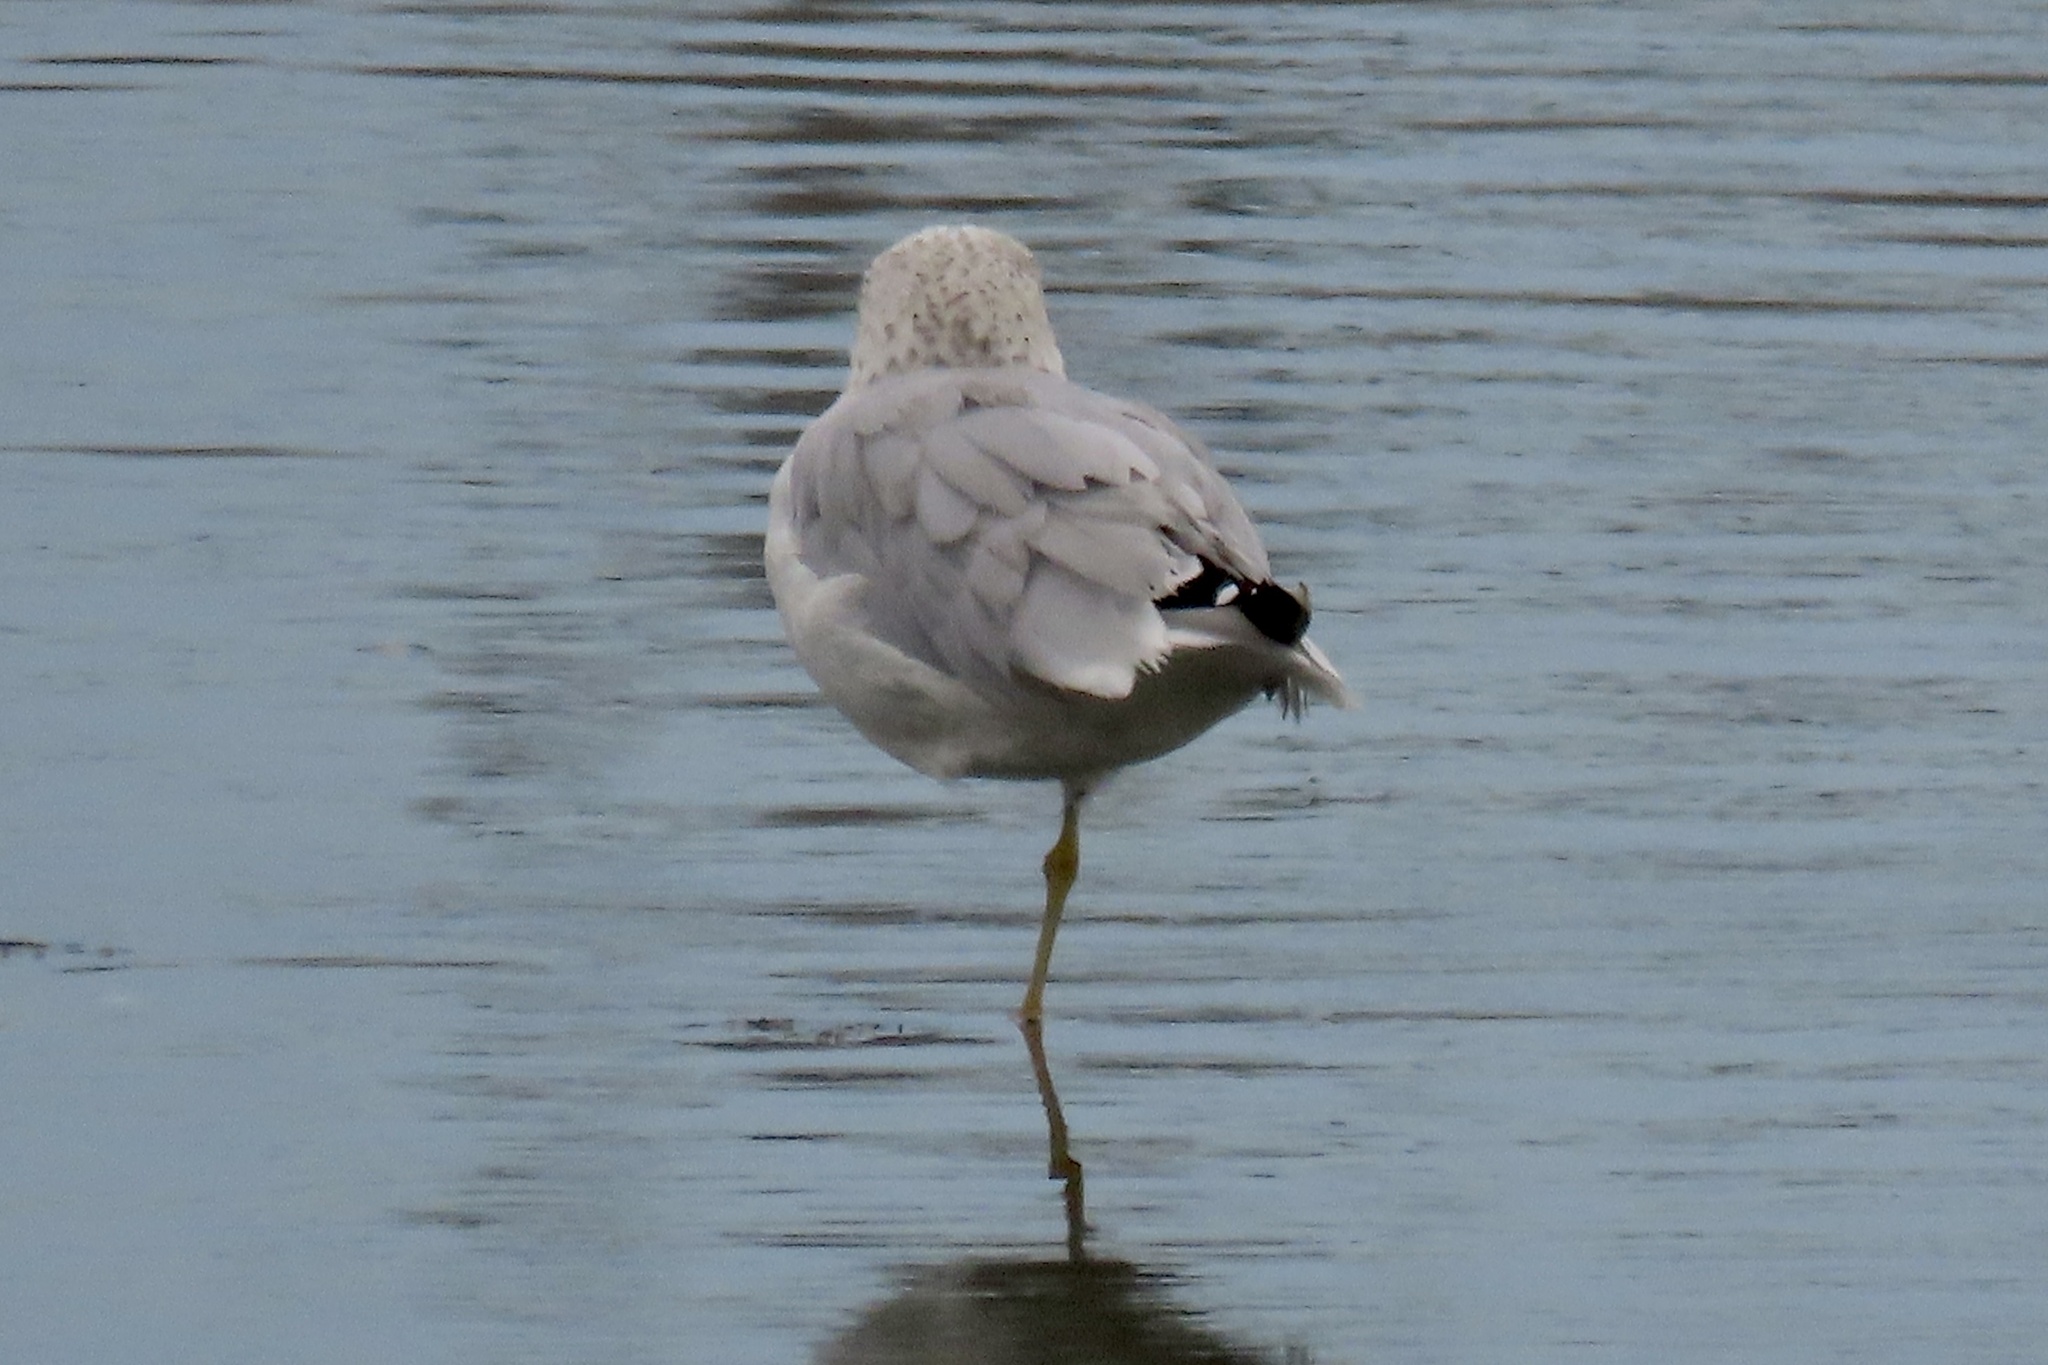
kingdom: Animalia
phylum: Chordata
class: Aves
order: Charadriiformes
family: Laridae
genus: Larus
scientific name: Larus delawarensis
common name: Ring-billed gull
